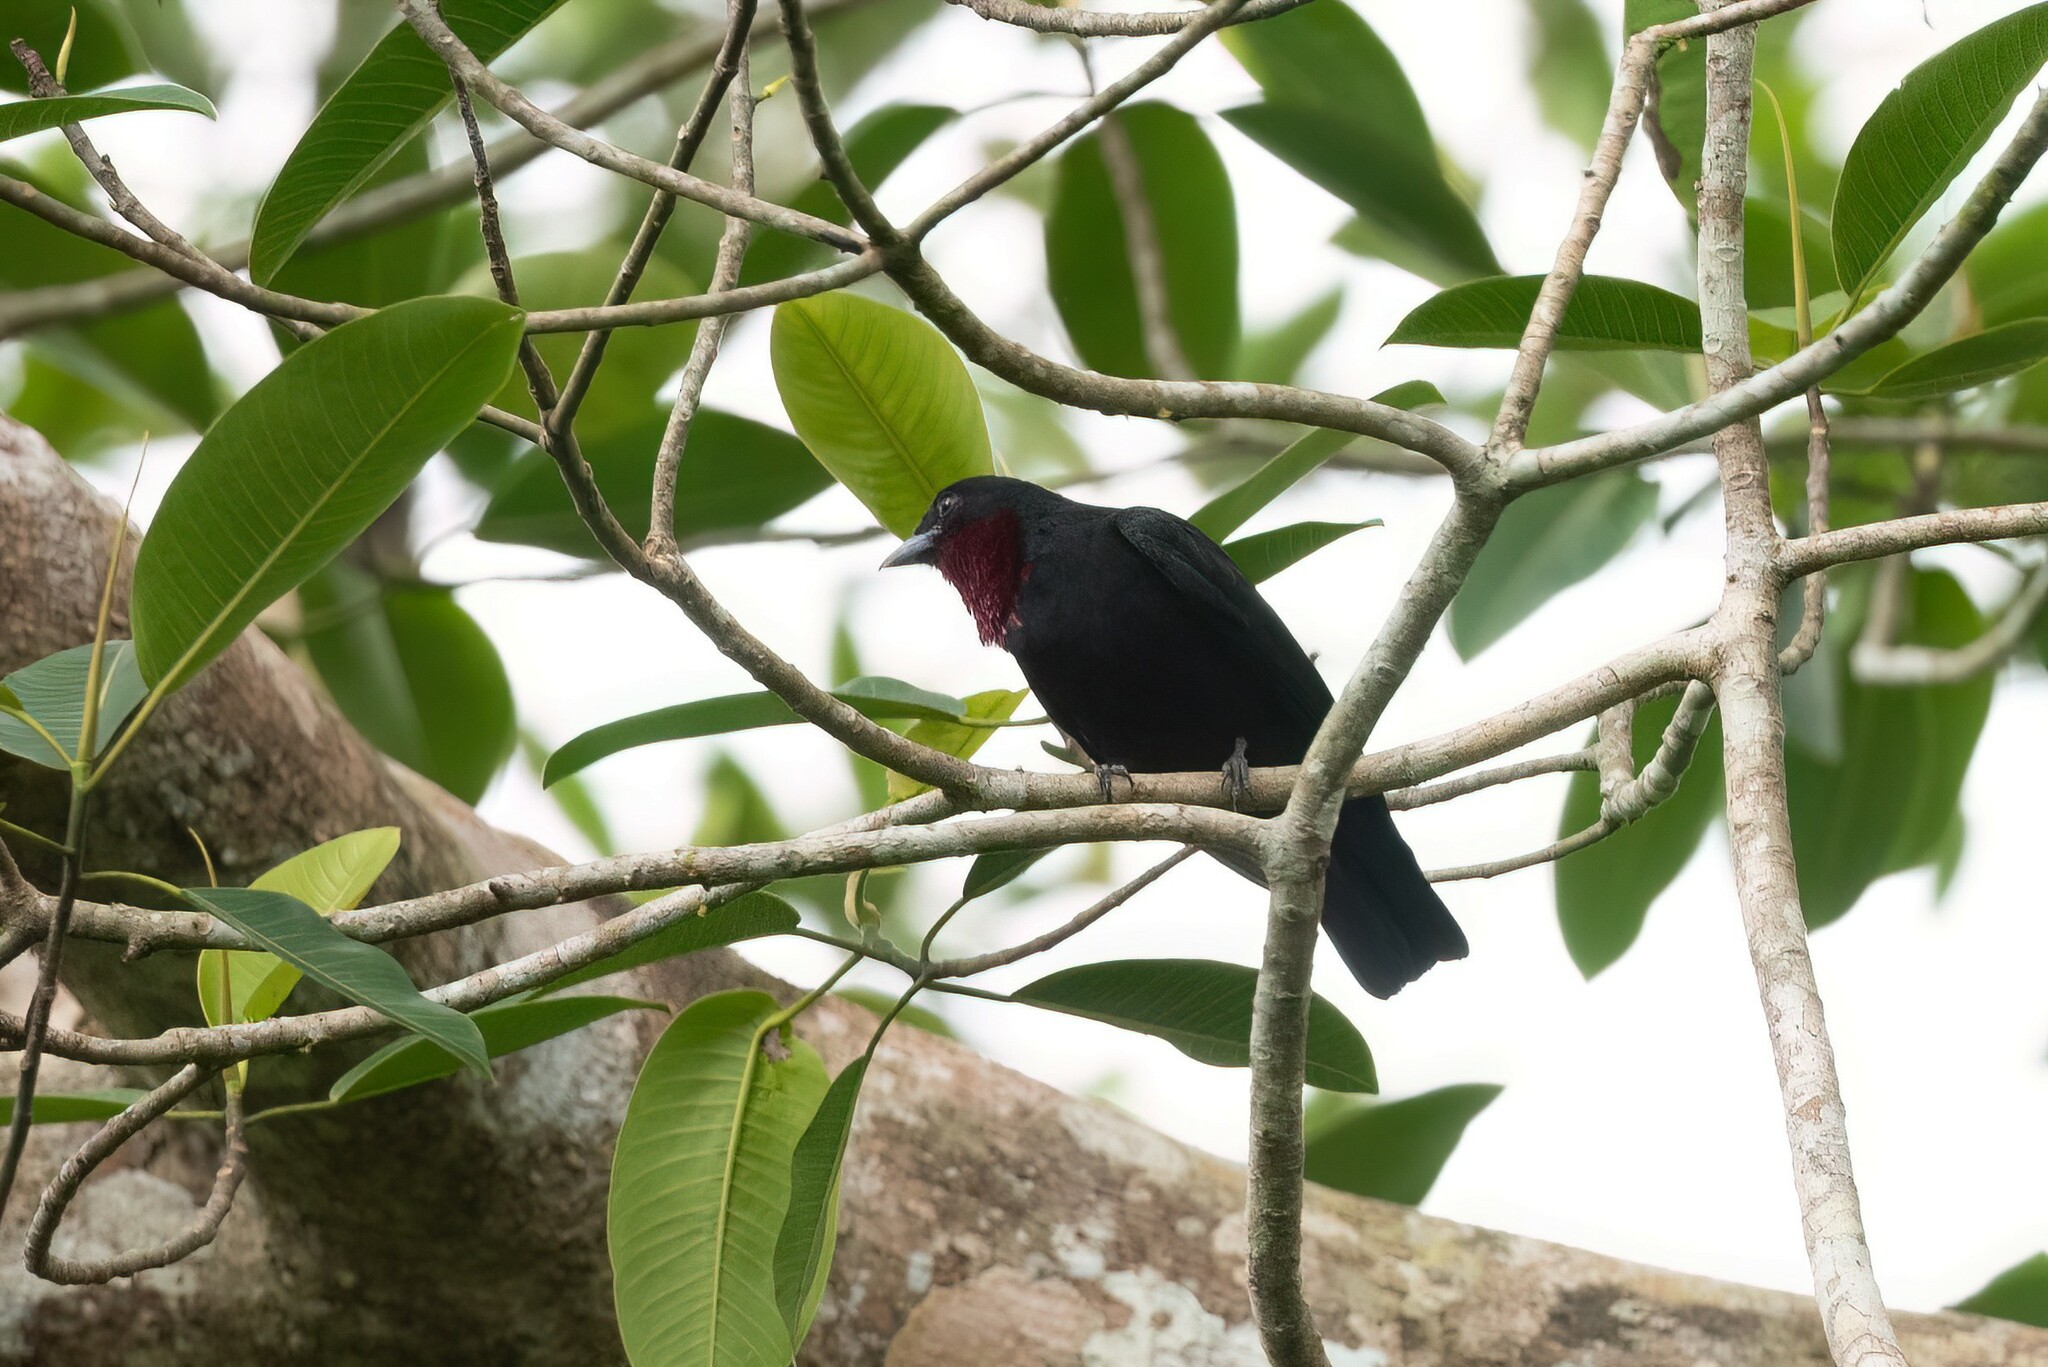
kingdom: Animalia
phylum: Chordata
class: Aves
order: Passeriformes
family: Cotingidae
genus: Querula
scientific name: Querula purpurata
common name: Purple-throated fruitcrow
